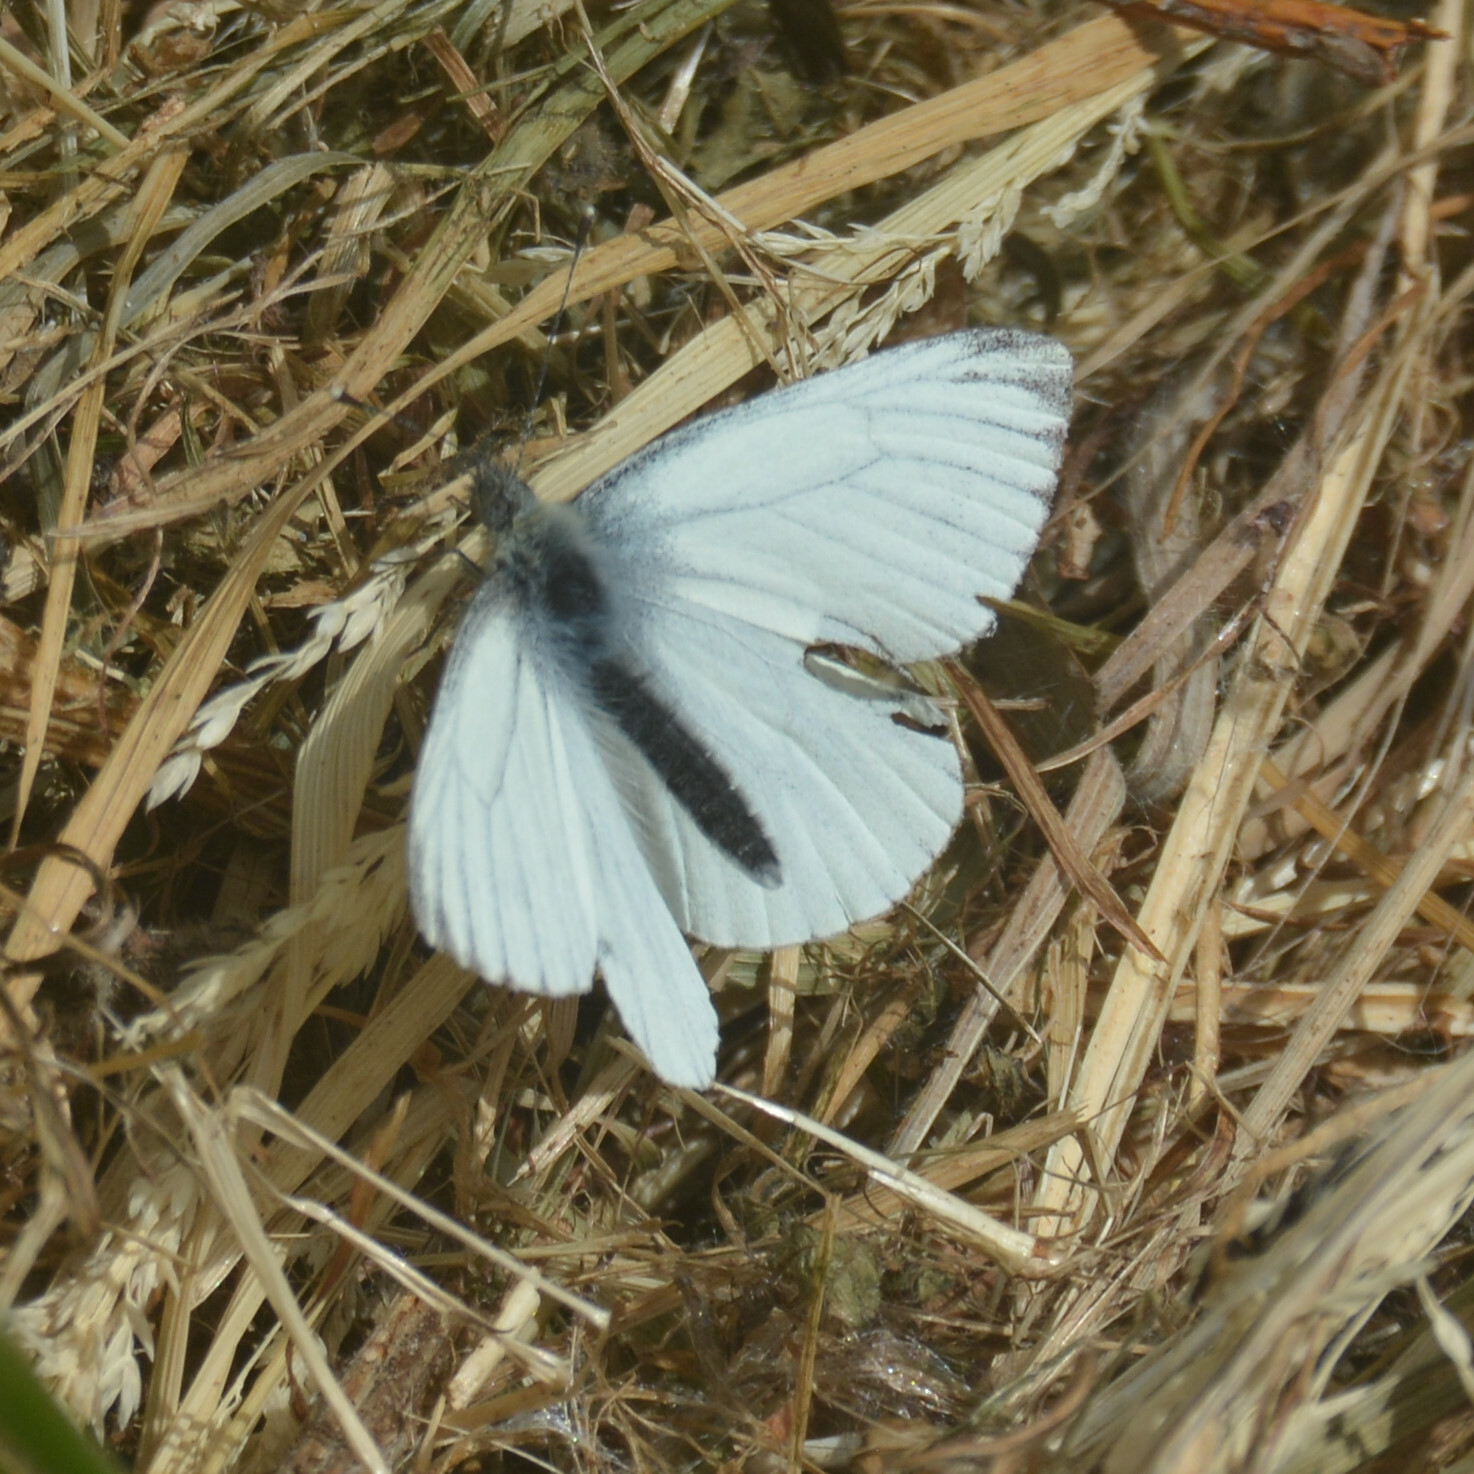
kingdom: Animalia
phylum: Arthropoda
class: Insecta
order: Lepidoptera
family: Pieridae
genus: Pieris
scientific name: Pieris napi
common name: Green-veined white
